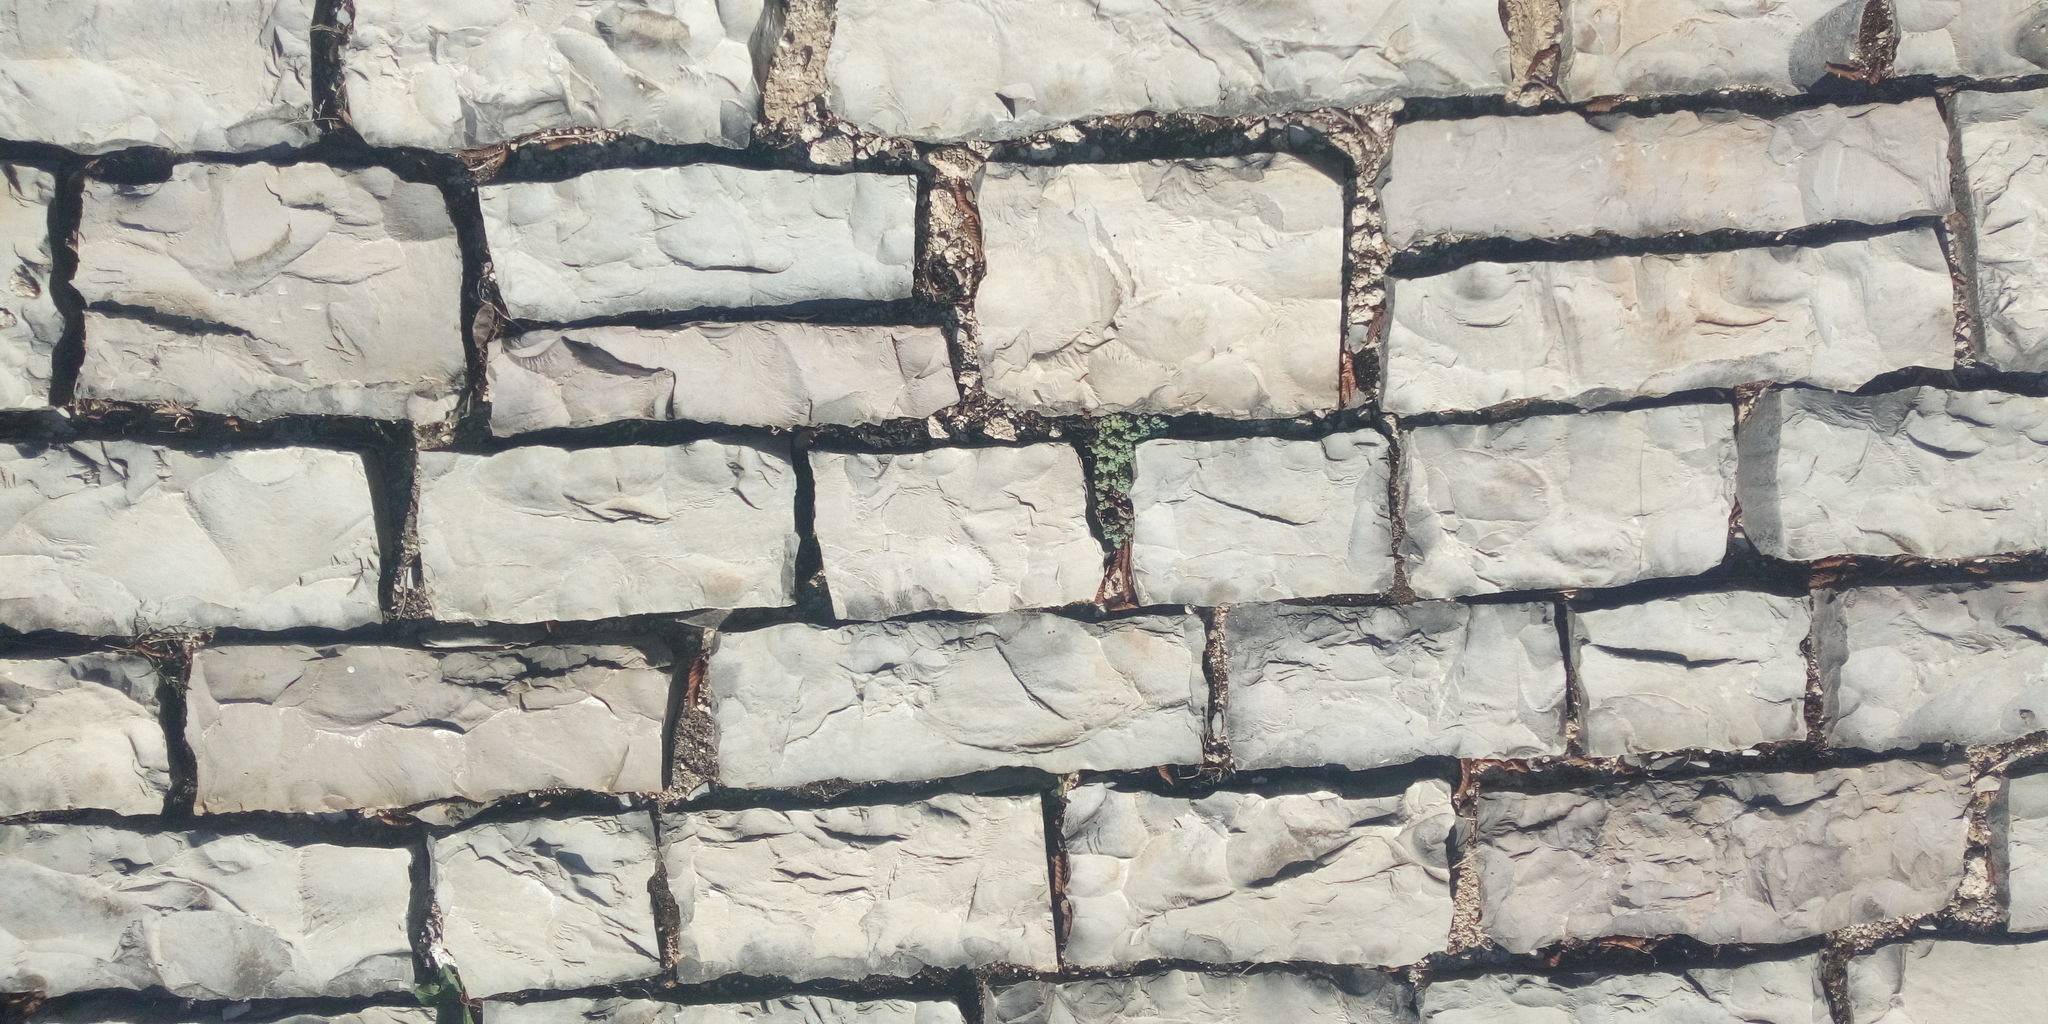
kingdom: Plantae
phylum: Tracheophyta
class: Magnoliopsida
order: Saxifragales
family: Crassulaceae
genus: Sedum
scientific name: Sedum dasyphyllum
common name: Thick-leaf stonecrop
